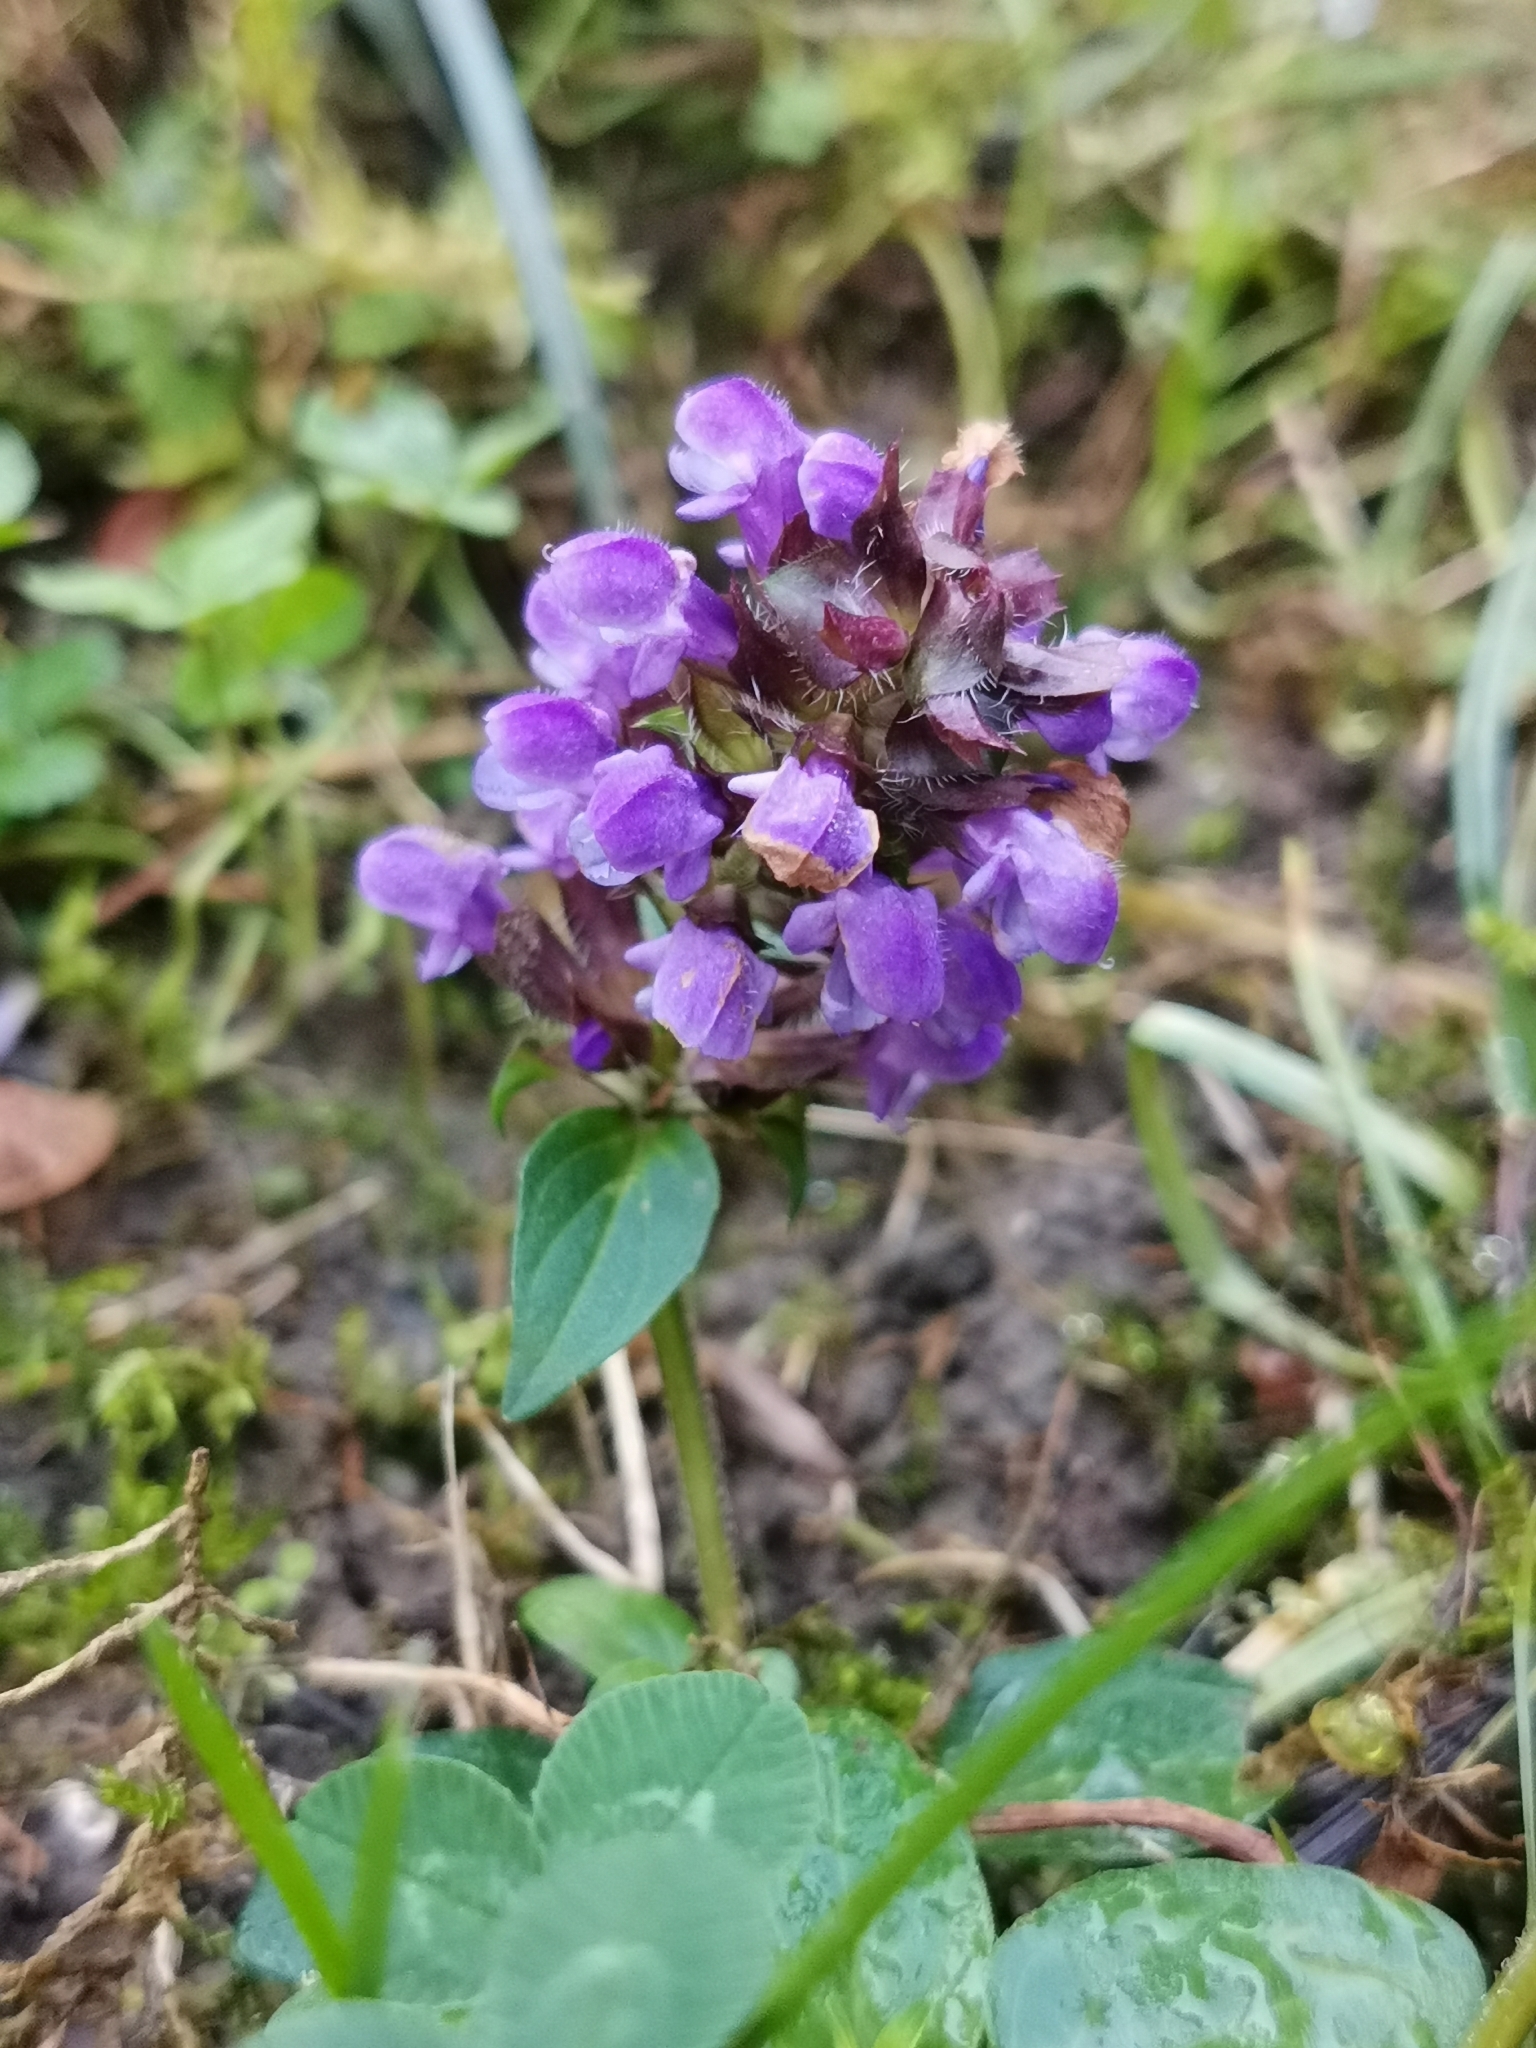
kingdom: Plantae
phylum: Tracheophyta
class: Magnoliopsida
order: Lamiales
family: Lamiaceae
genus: Prunella
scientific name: Prunella vulgaris
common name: Heal-all
